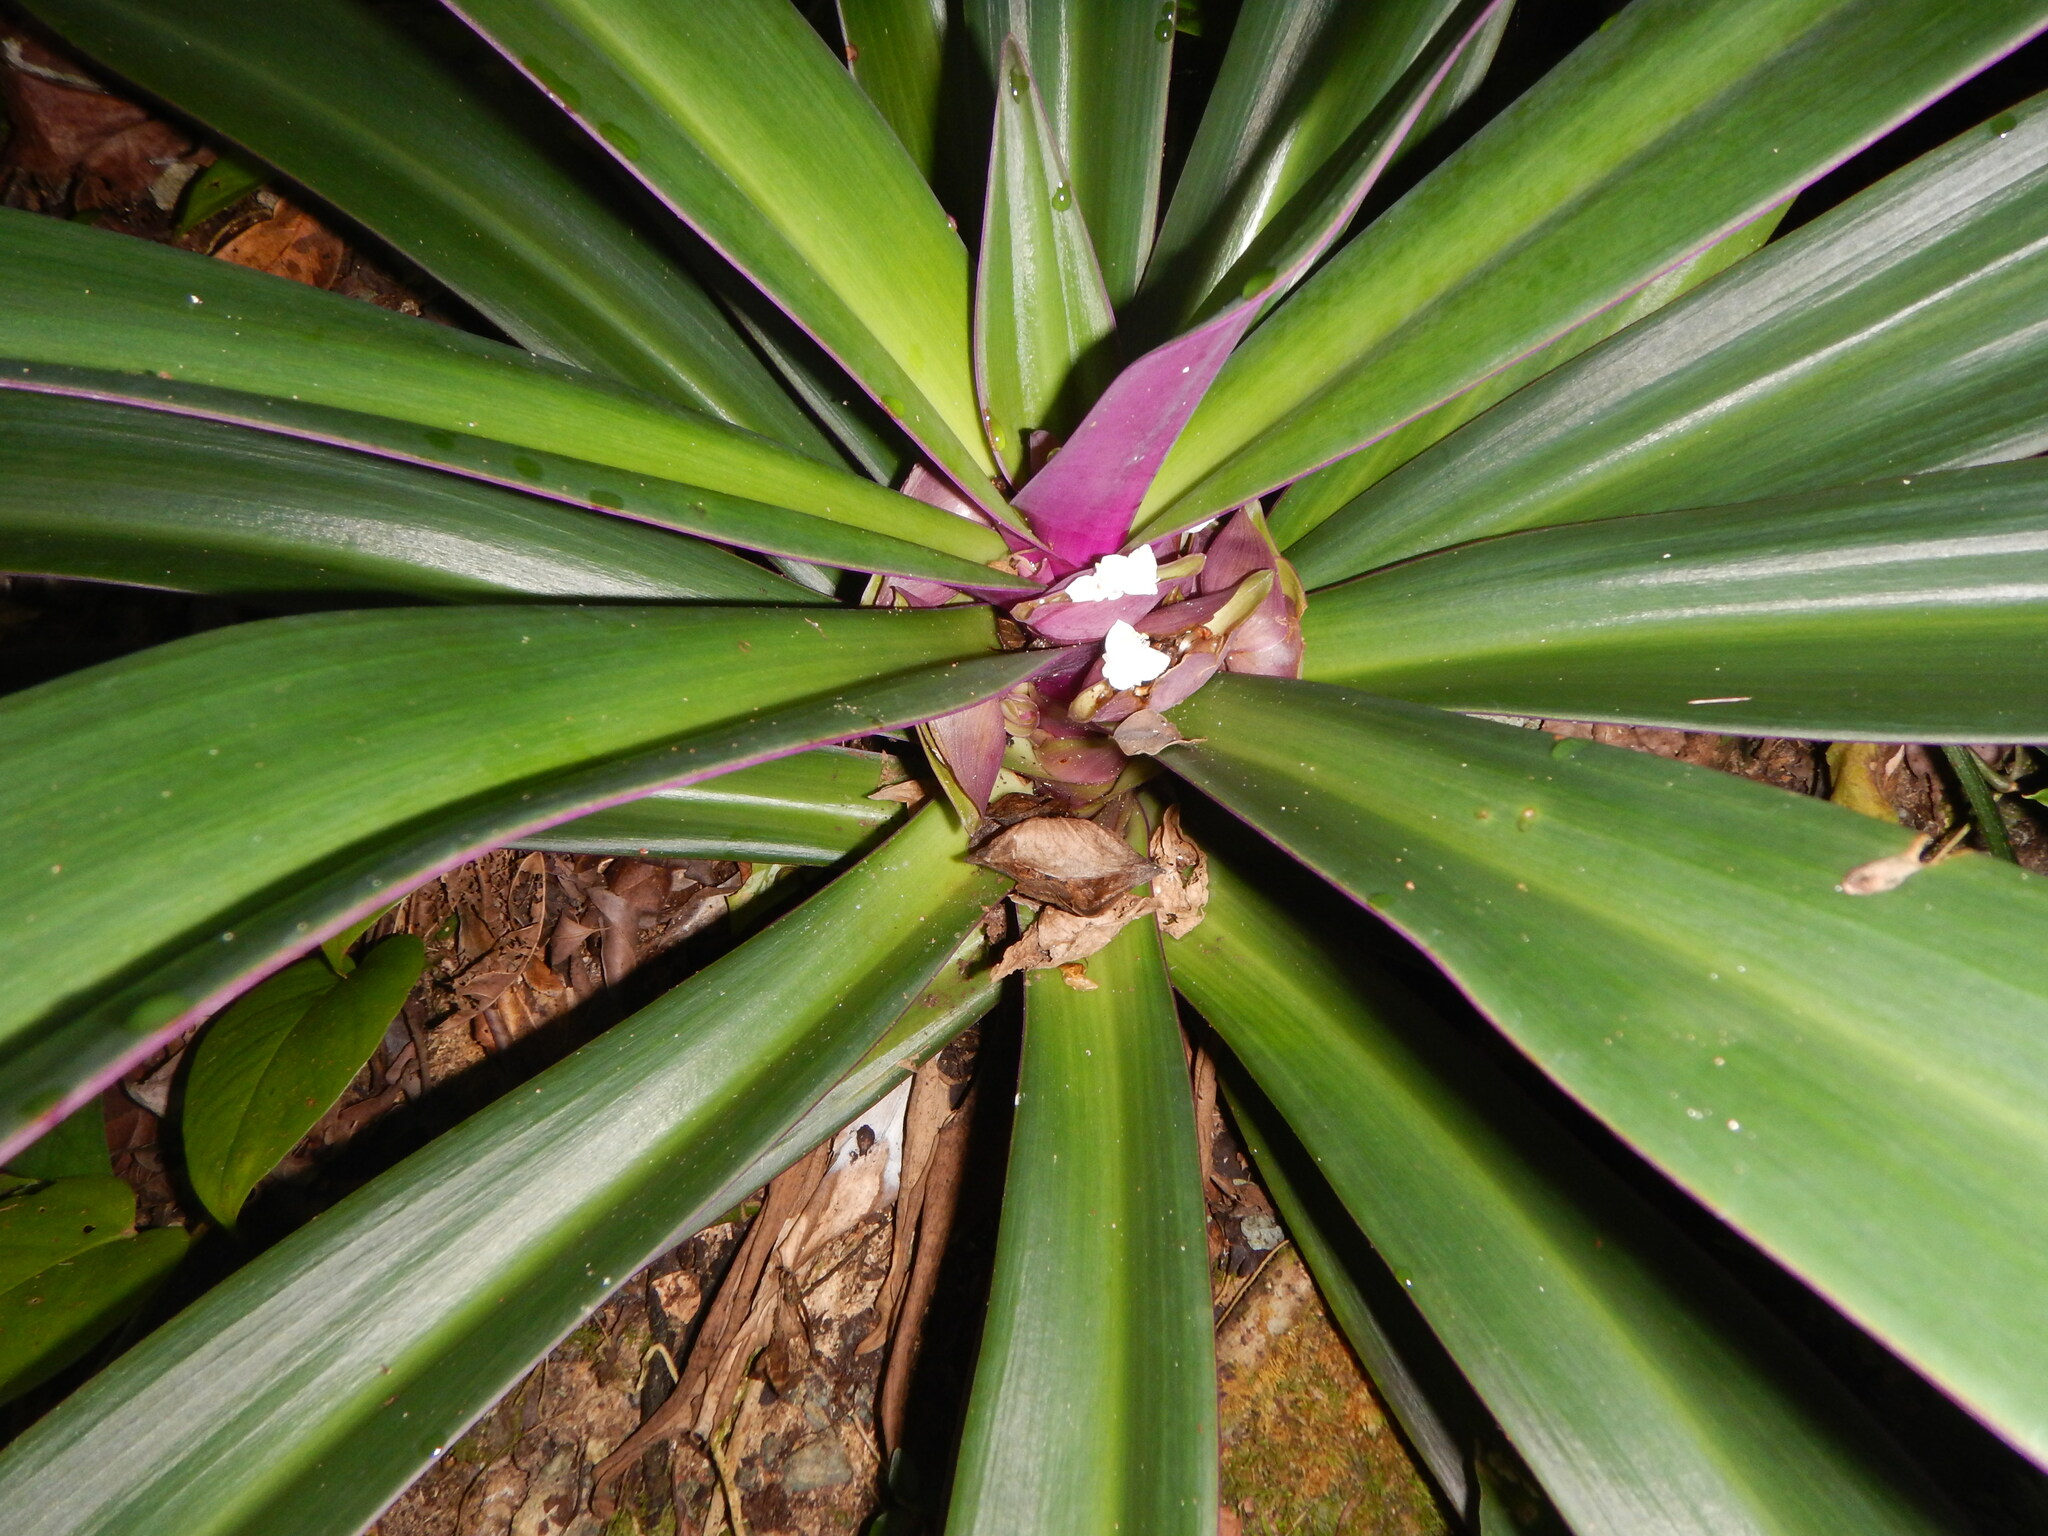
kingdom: Plantae
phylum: Tracheophyta
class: Liliopsida
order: Commelinales
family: Commelinaceae
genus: Tradescantia
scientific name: Tradescantia spathacea
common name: Boatlily
